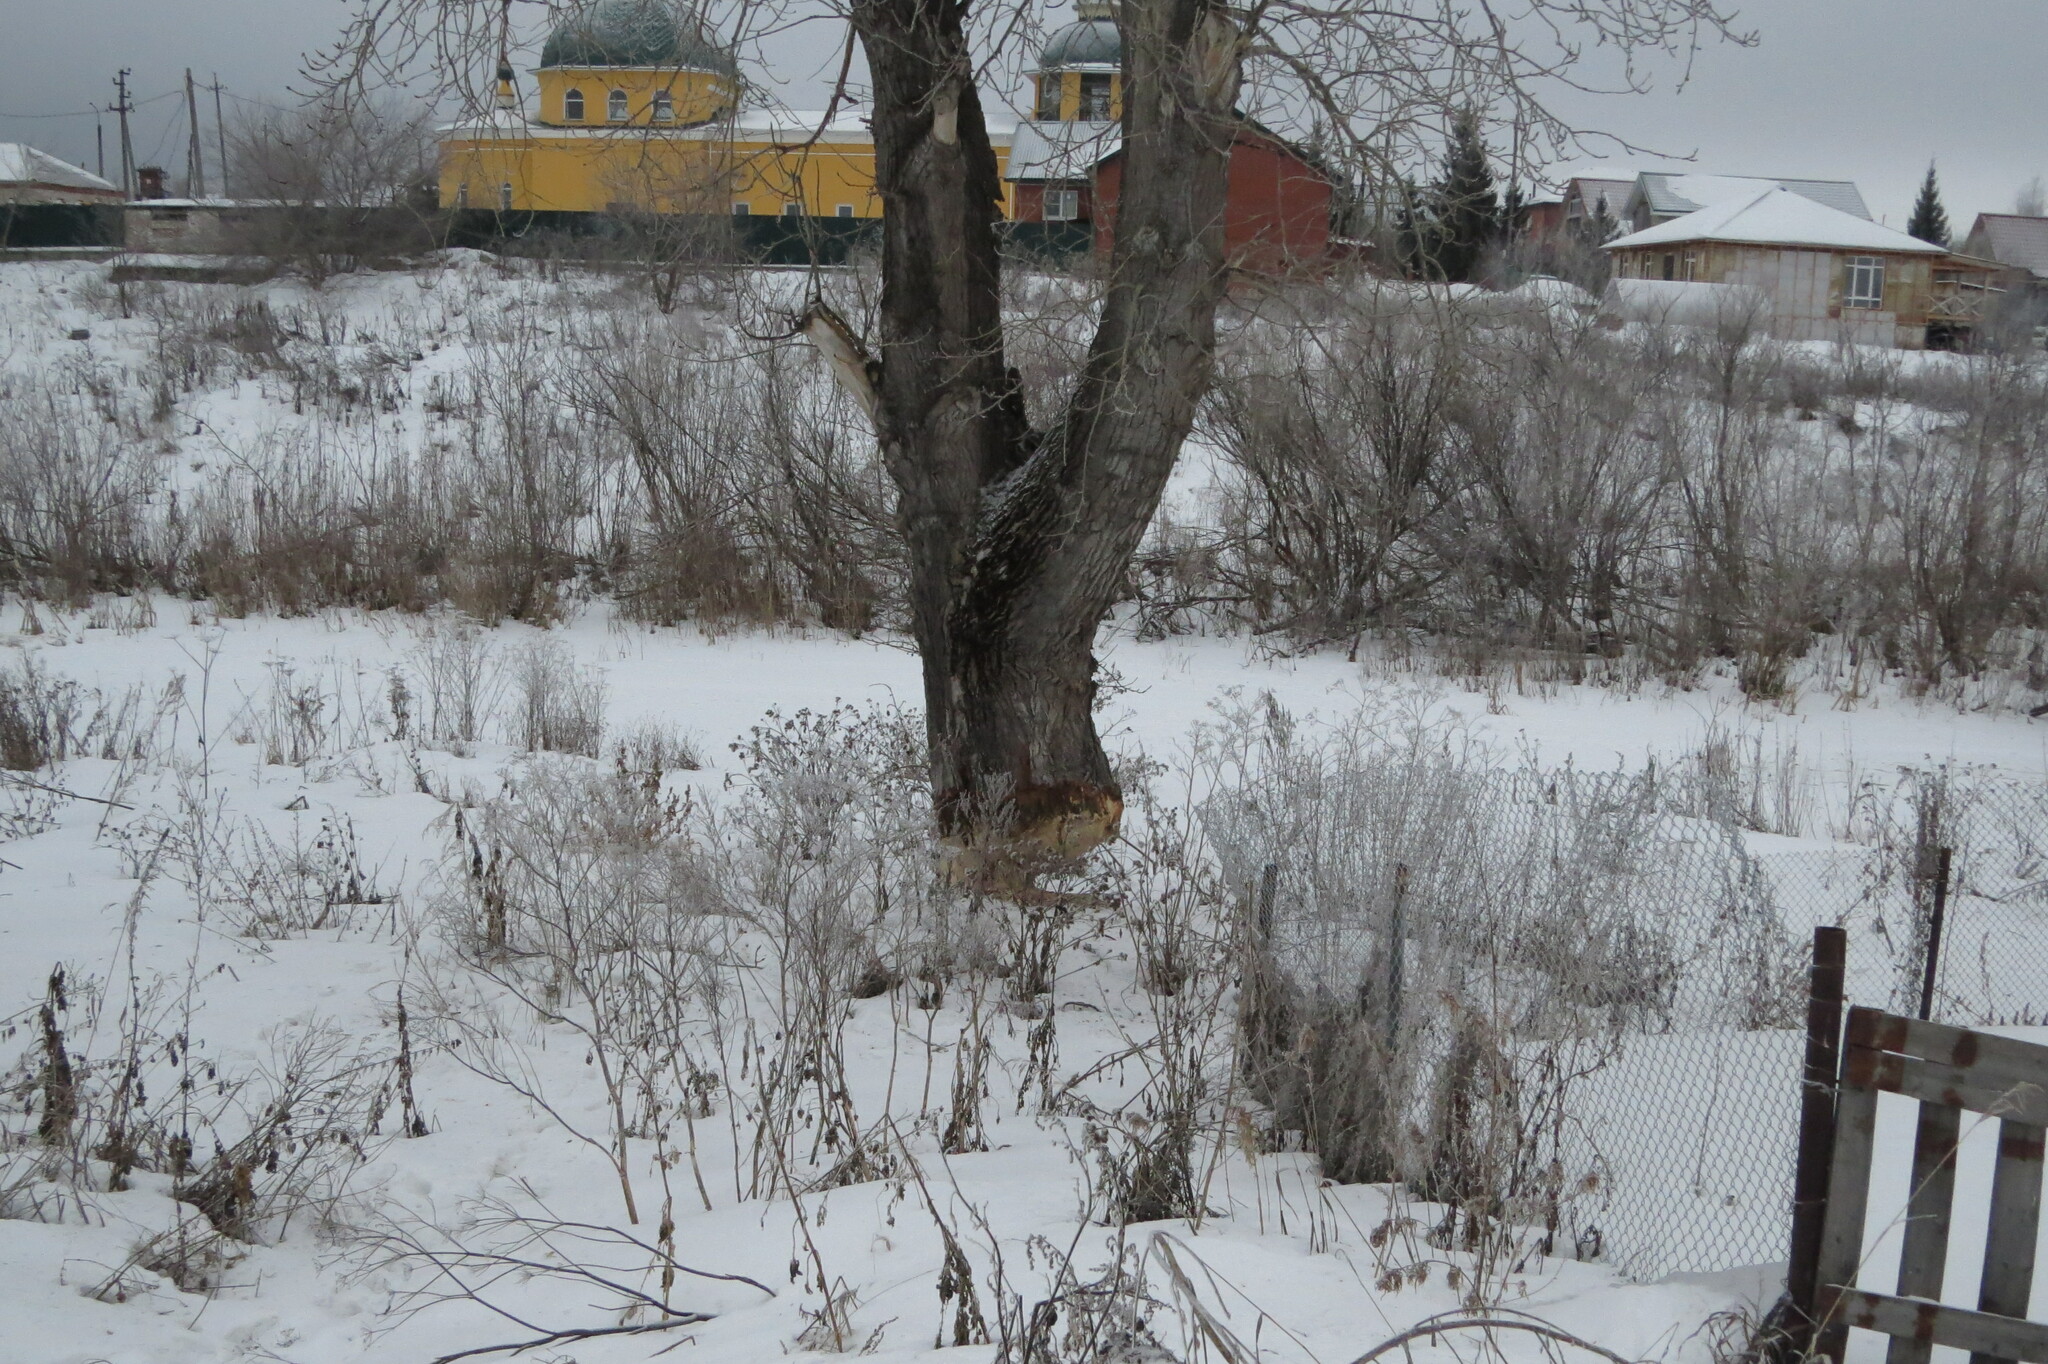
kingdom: Plantae
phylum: Tracheophyta
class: Magnoliopsida
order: Malpighiales
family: Salicaceae
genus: Populus
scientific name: Populus
